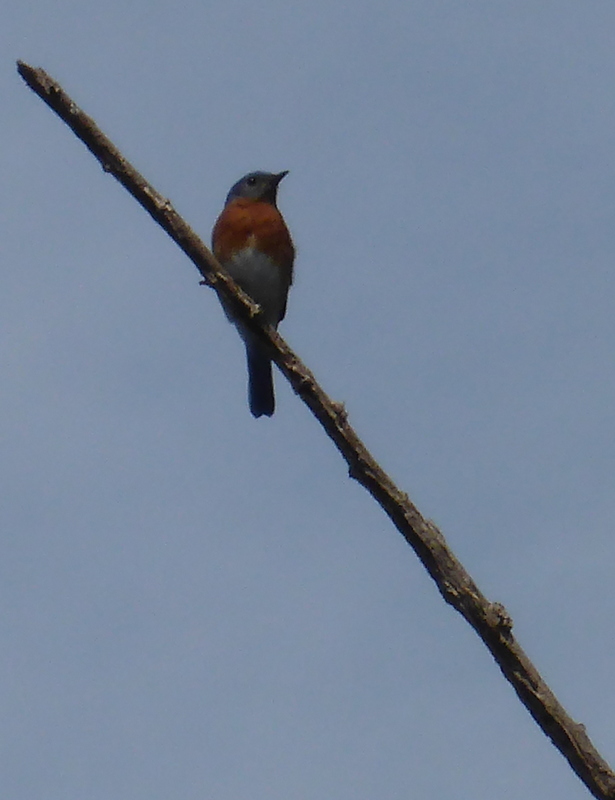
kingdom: Animalia
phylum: Chordata
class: Aves
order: Passeriformes
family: Turdidae
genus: Sialia
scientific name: Sialia sialis
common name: Eastern bluebird
